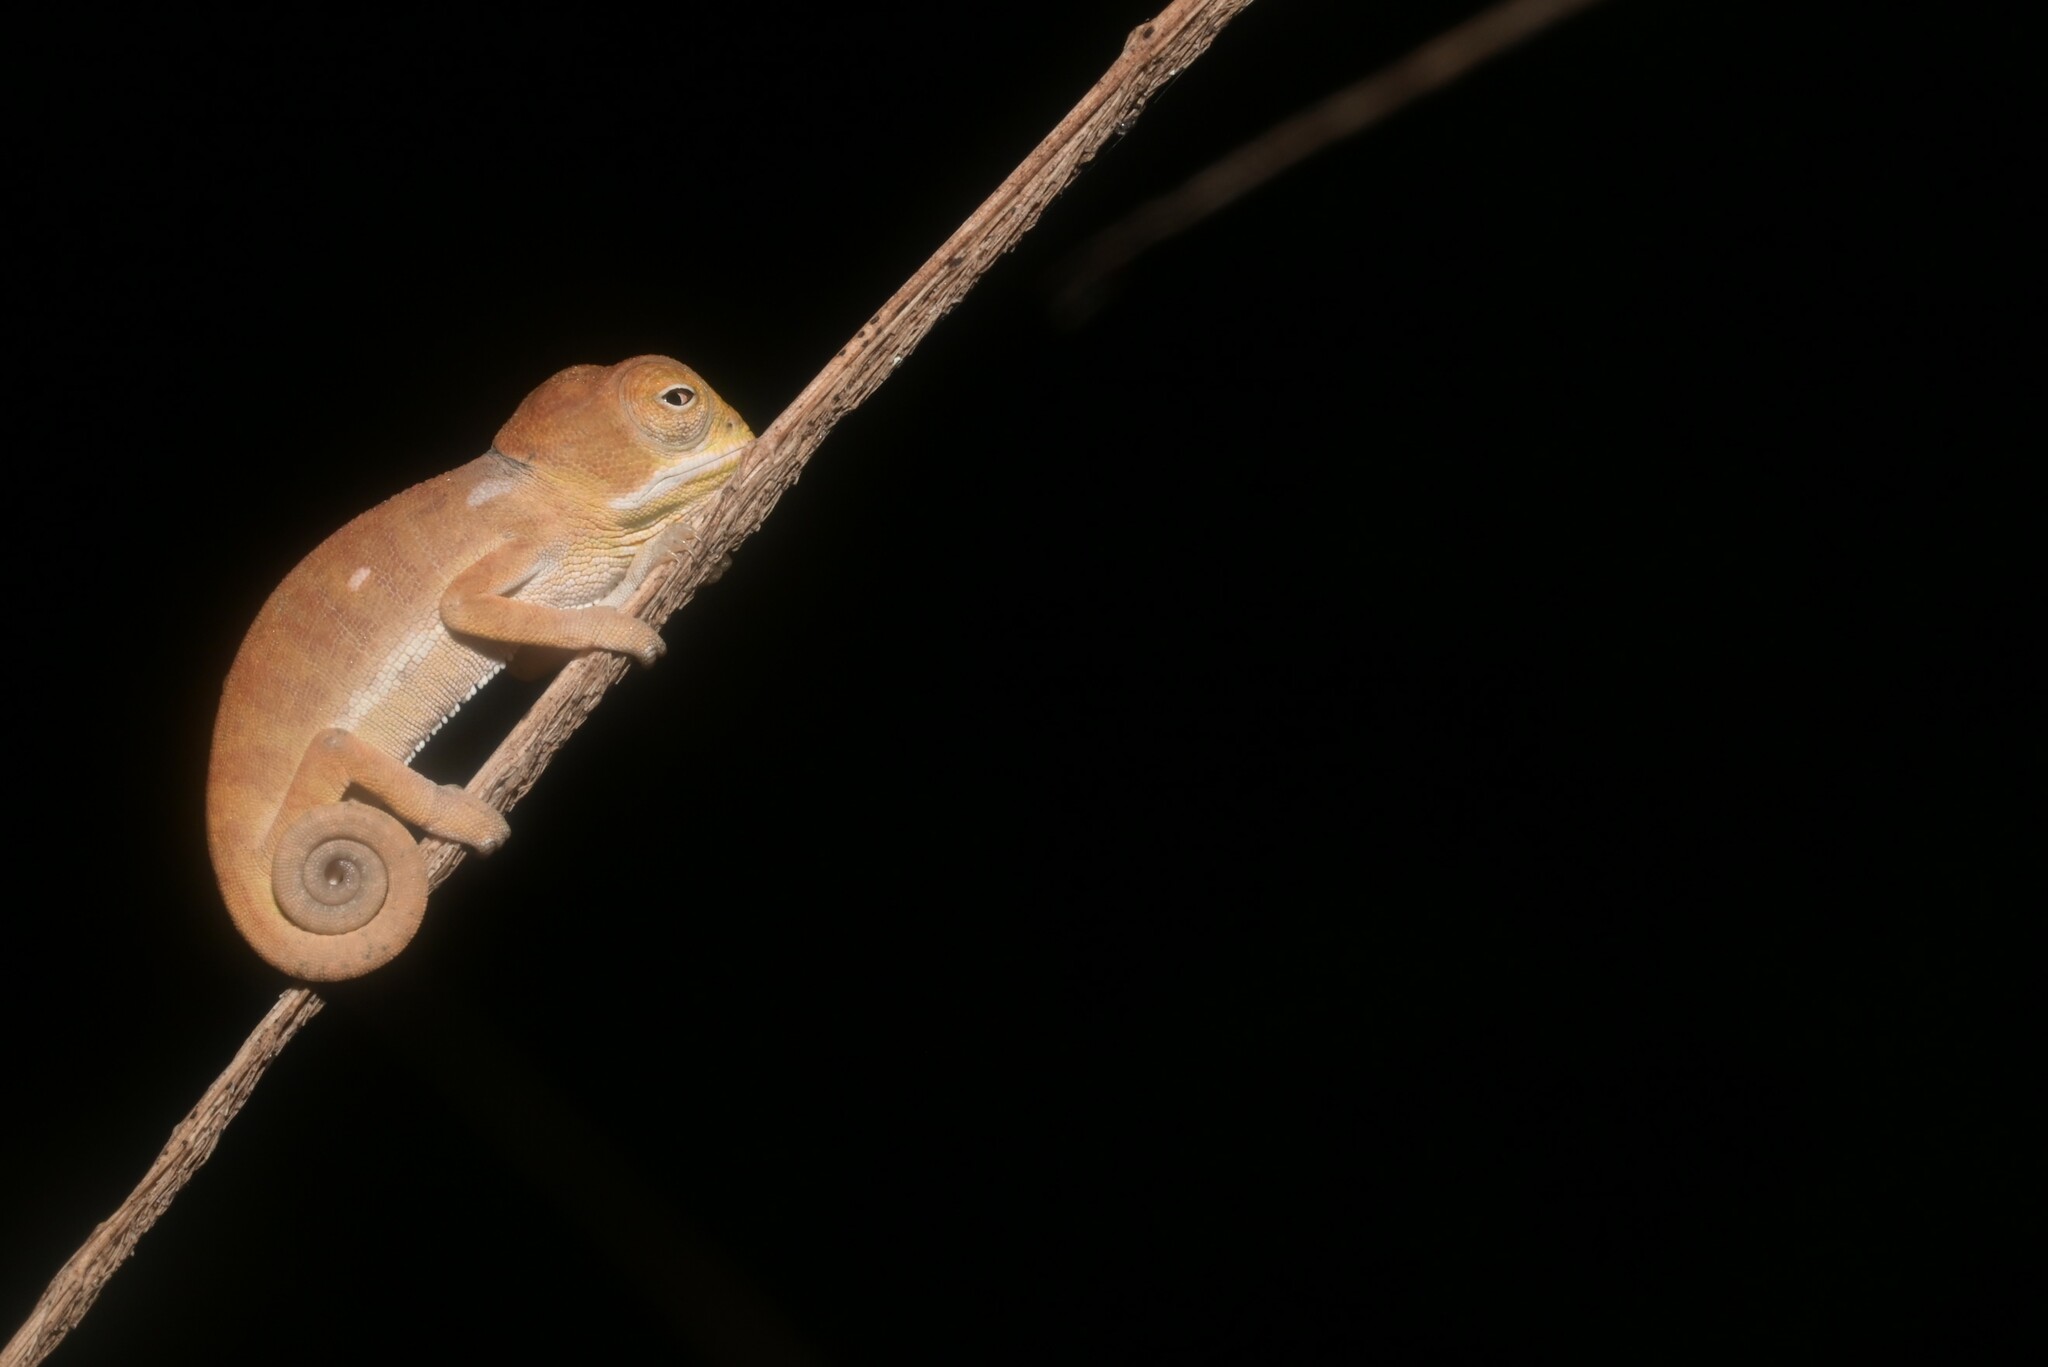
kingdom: Animalia
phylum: Chordata
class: Squamata
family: Chamaeleonidae
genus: Chamaeleo
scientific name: Chamaeleo dilepis
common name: Flapneck chameleon
